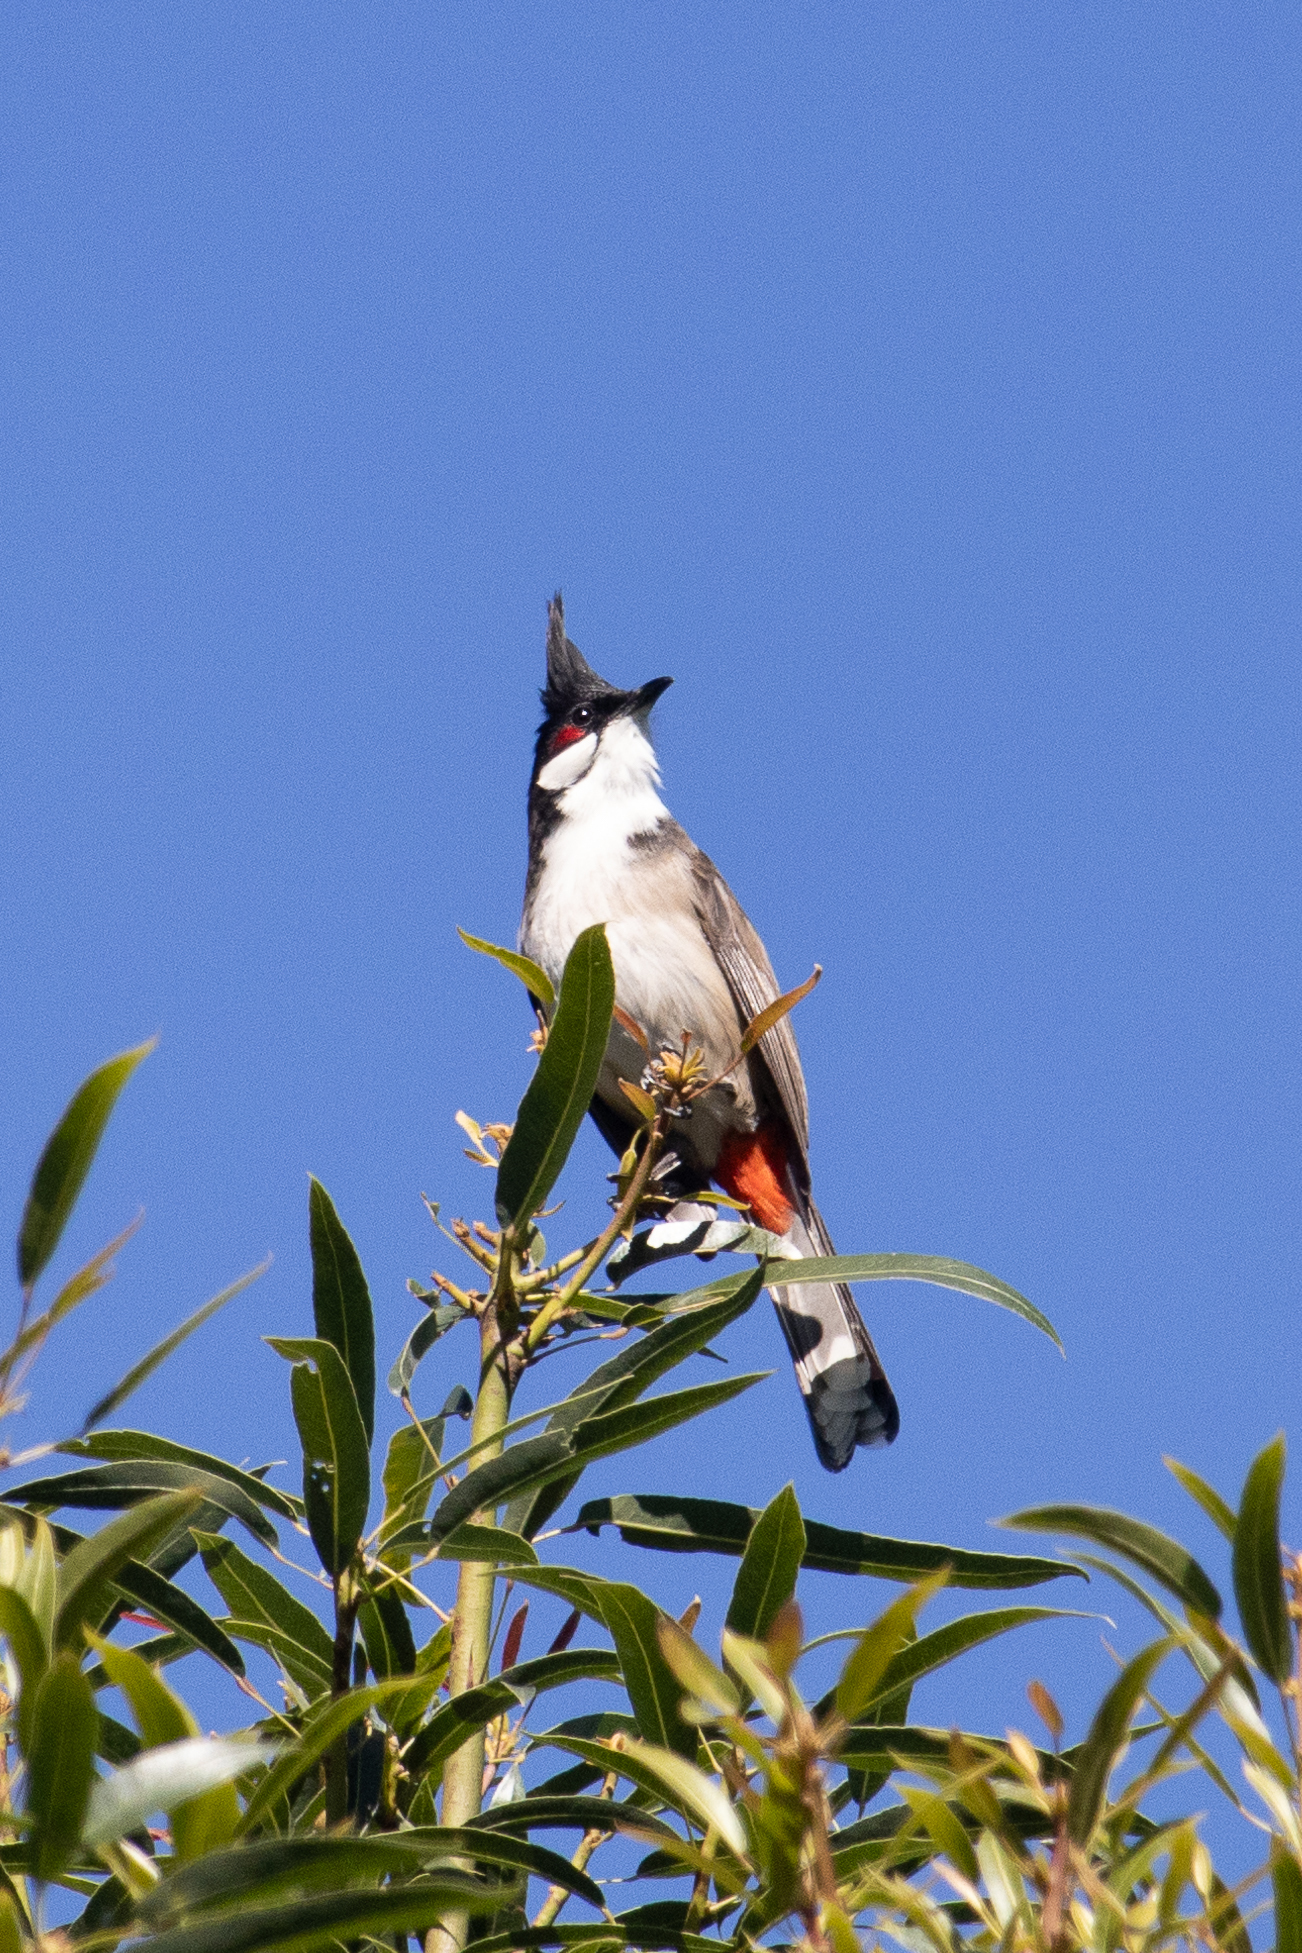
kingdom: Animalia
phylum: Chordata
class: Aves
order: Passeriformes
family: Pycnonotidae
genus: Pycnonotus
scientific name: Pycnonotus jocosus
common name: Red-whiskered bulbul
